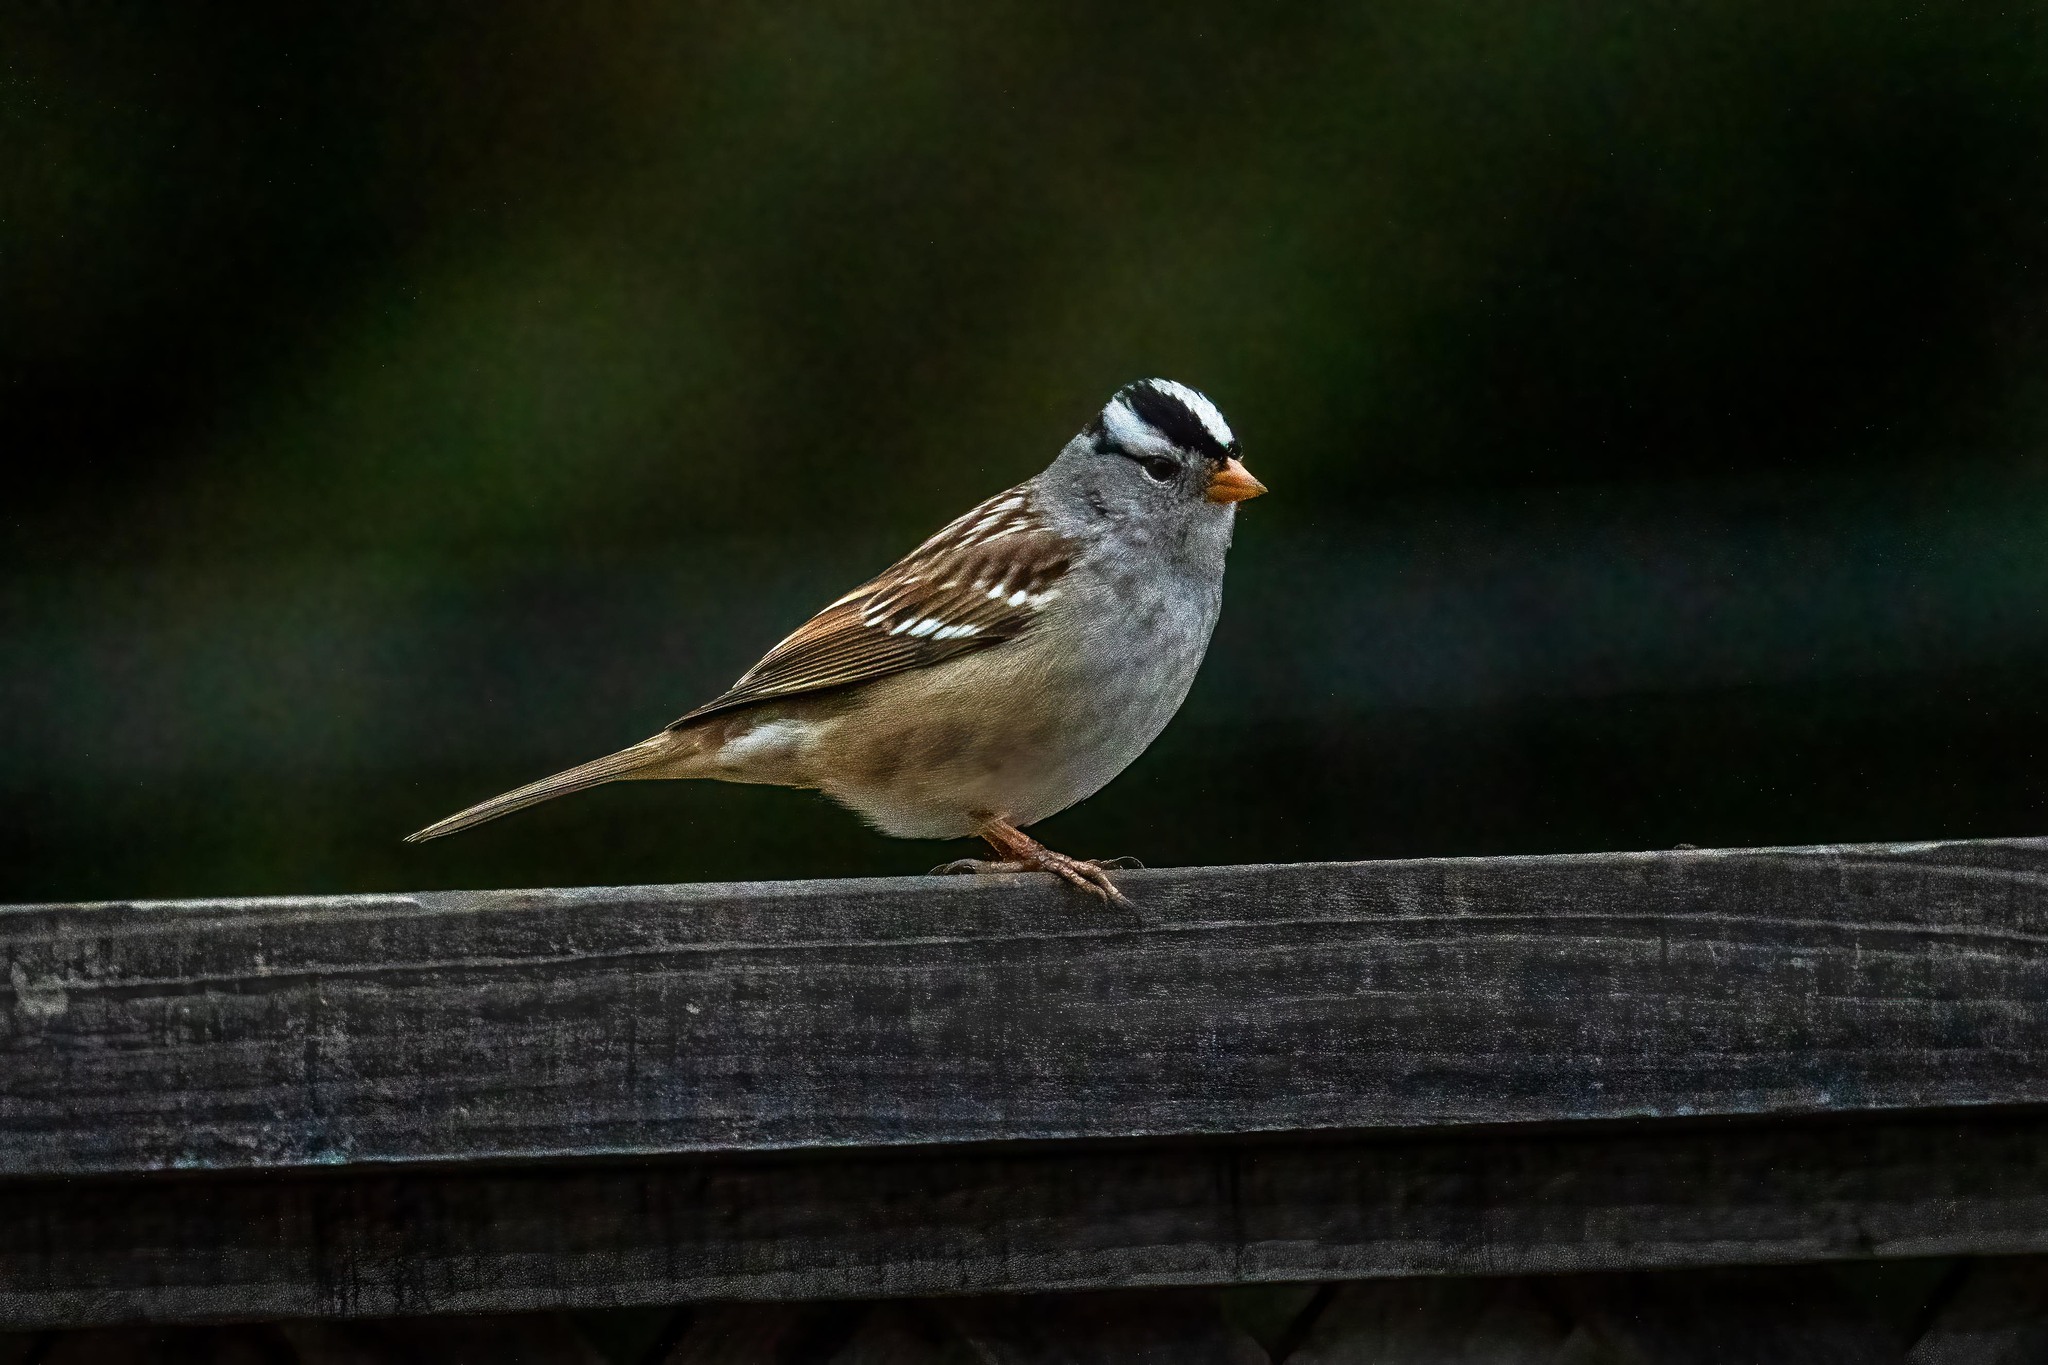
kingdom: Animalia
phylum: Chordata
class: Aves
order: Passeriformes
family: Passerellidae
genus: Zonotrichia
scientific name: Zonotrichia leucophrys
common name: White-crowned sparrow
